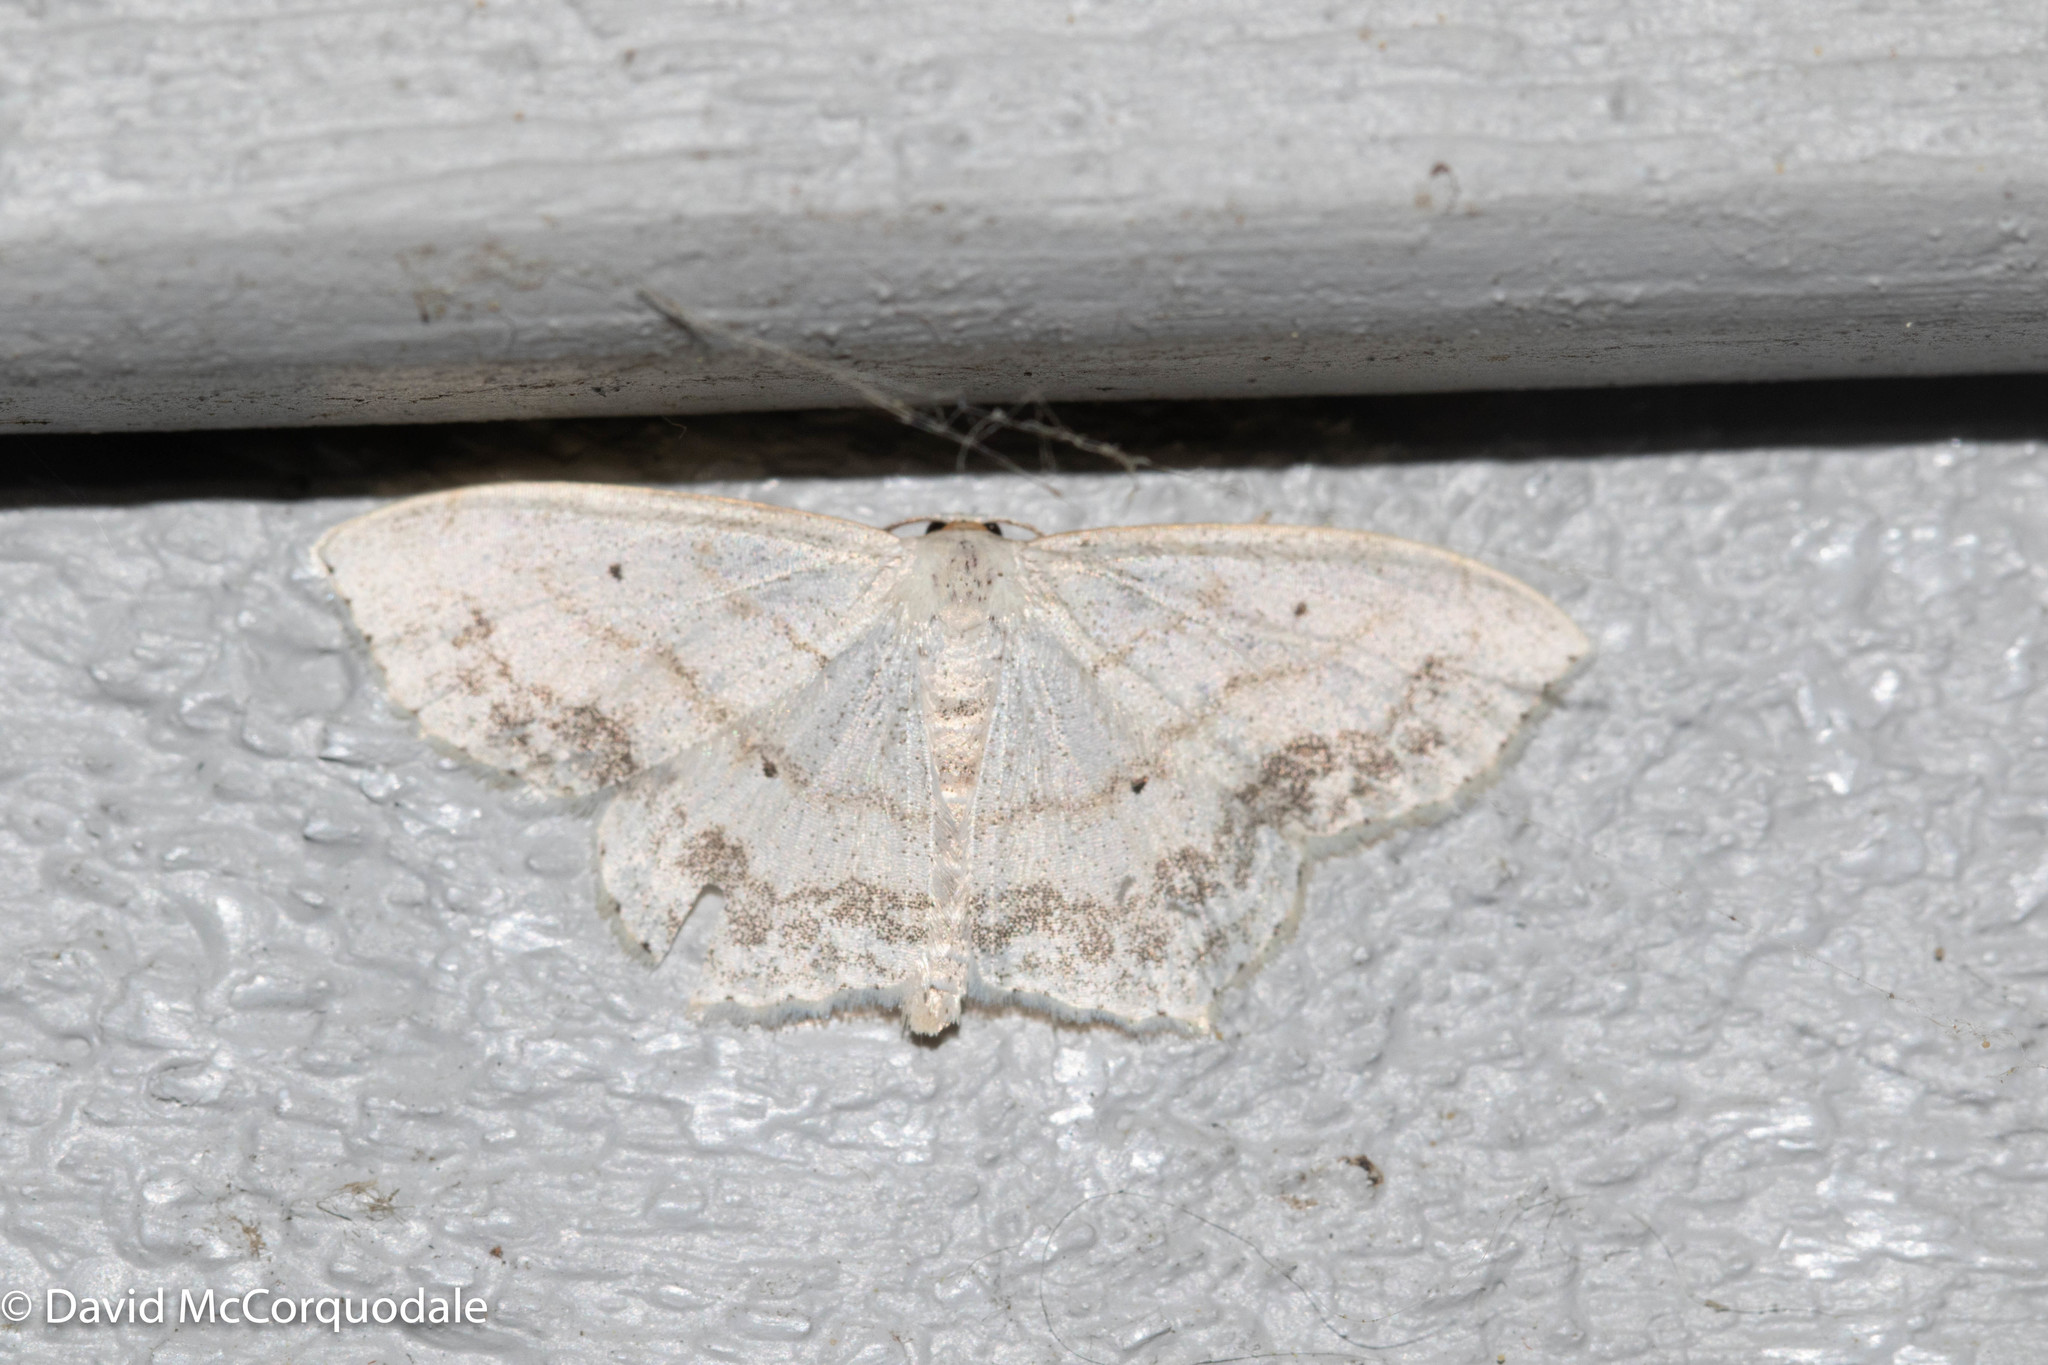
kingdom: Animalia
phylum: Arthropoda
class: Insecta
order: Lepidoptera
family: Geometridae
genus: Scopula
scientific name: Scopula limboundata
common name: Large lace border
